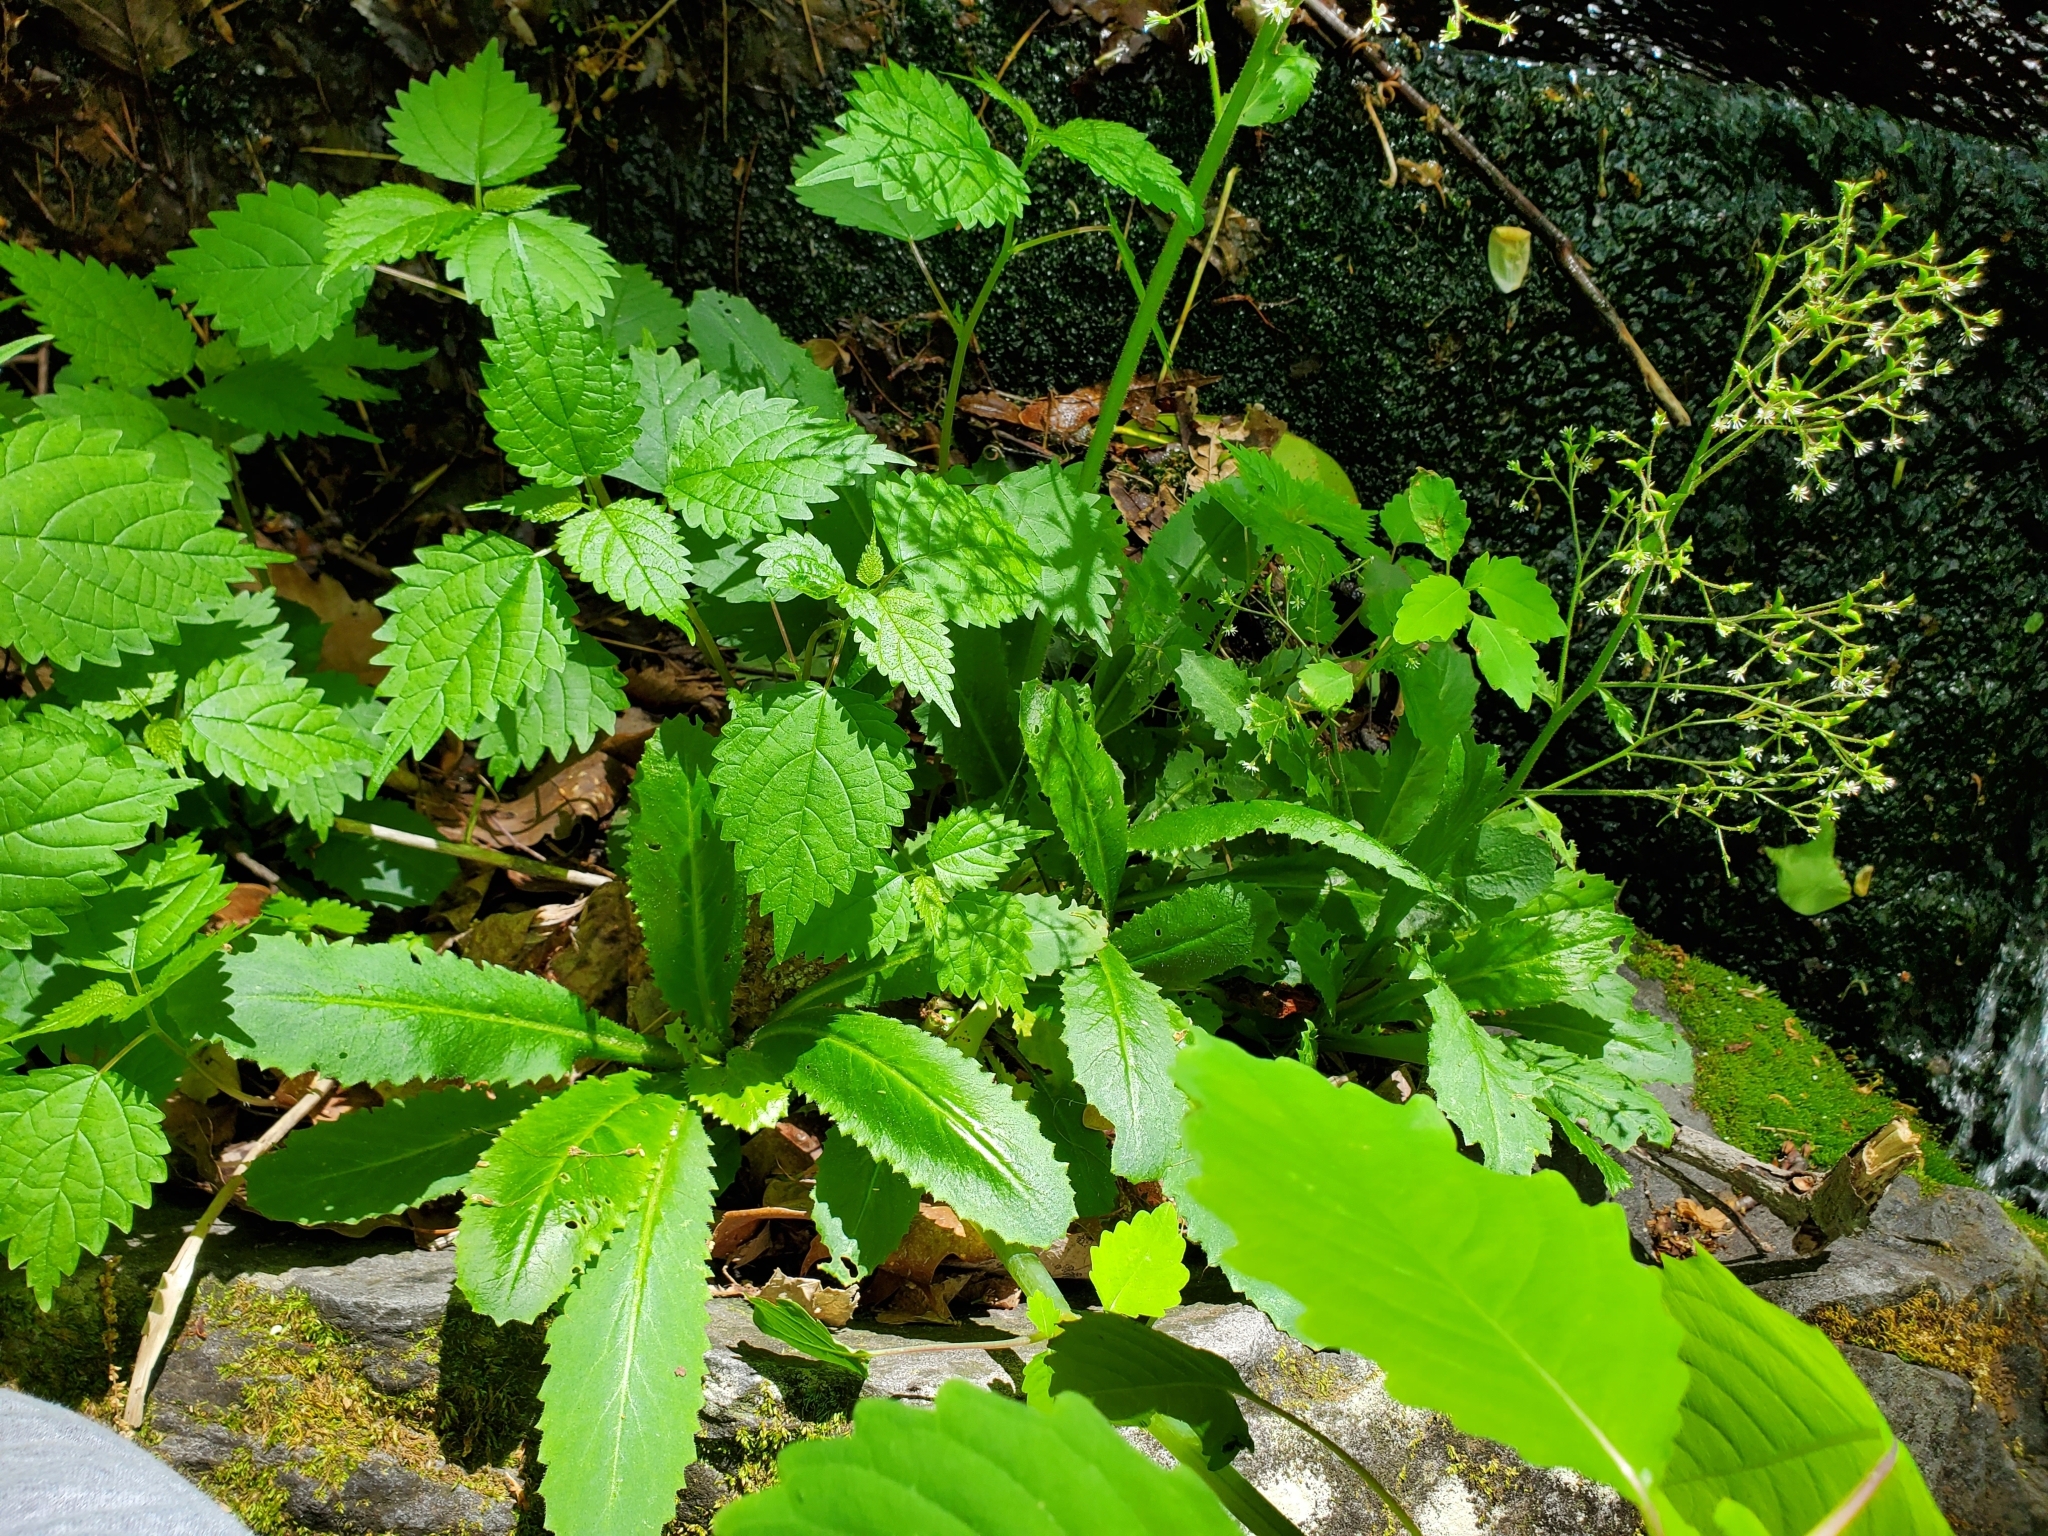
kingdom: Plantae
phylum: Tracheophyta
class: Magnoliopsida
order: Saxifragales
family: Saxifragaceae
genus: Micranthes
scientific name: Micranthes micranthidifolia
